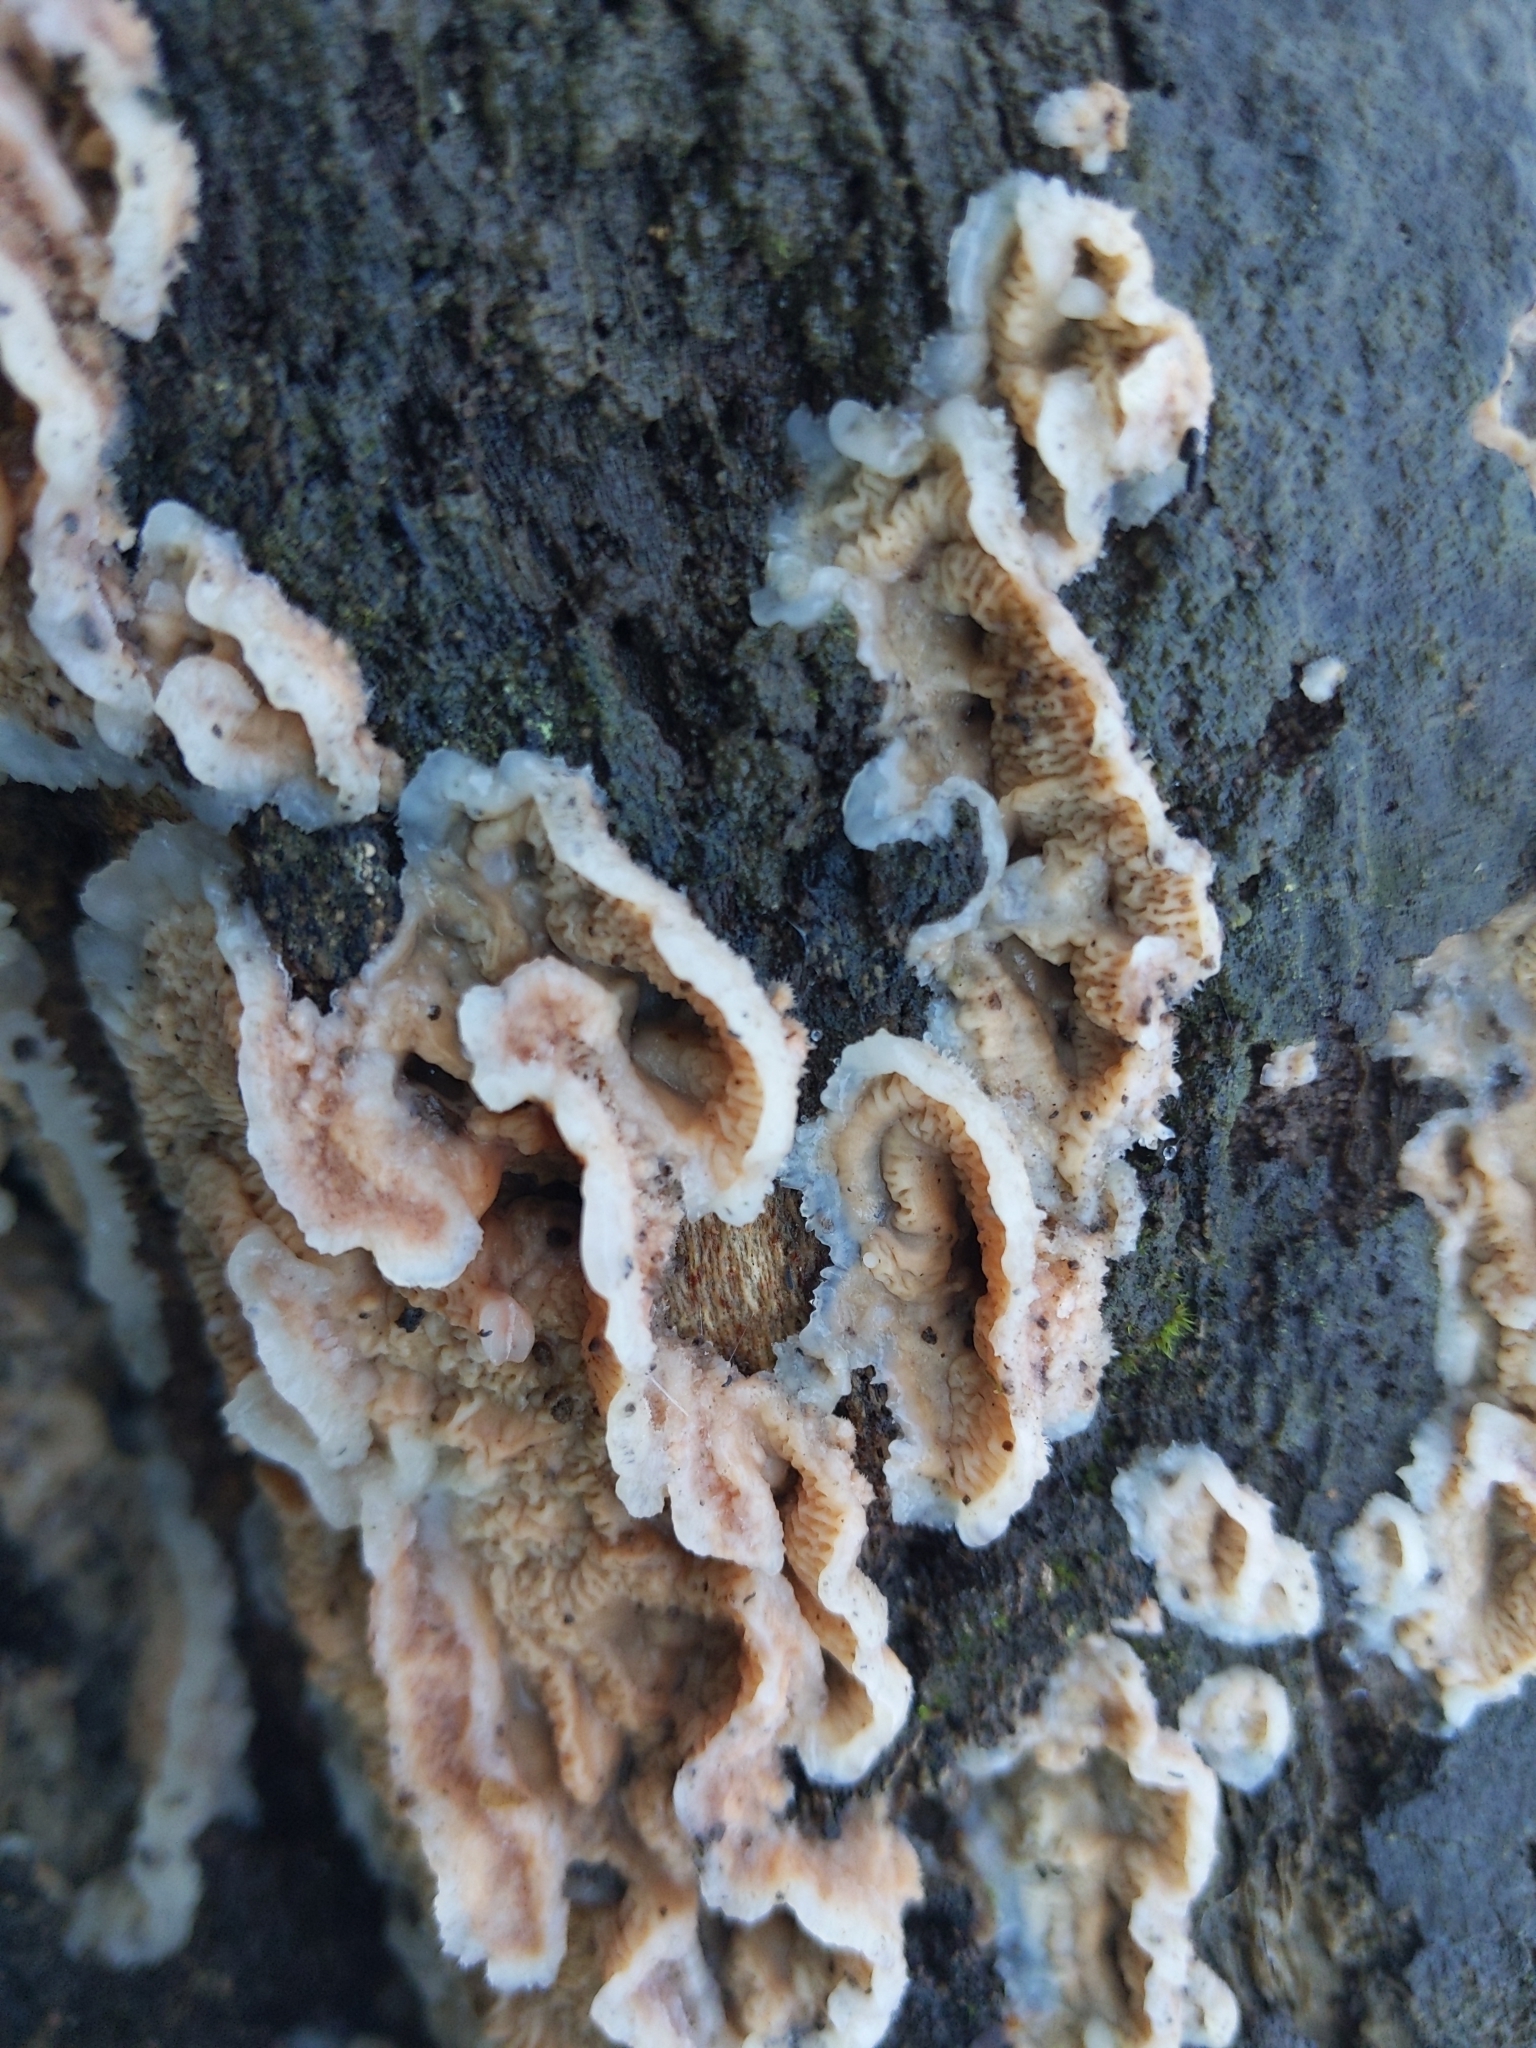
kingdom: Fungi
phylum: Basidiomycota
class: Agaricomycetes
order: Polyporales
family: Meruliaceae
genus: Phlebia
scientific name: Phlebia tremellosa
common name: Jelly rot
